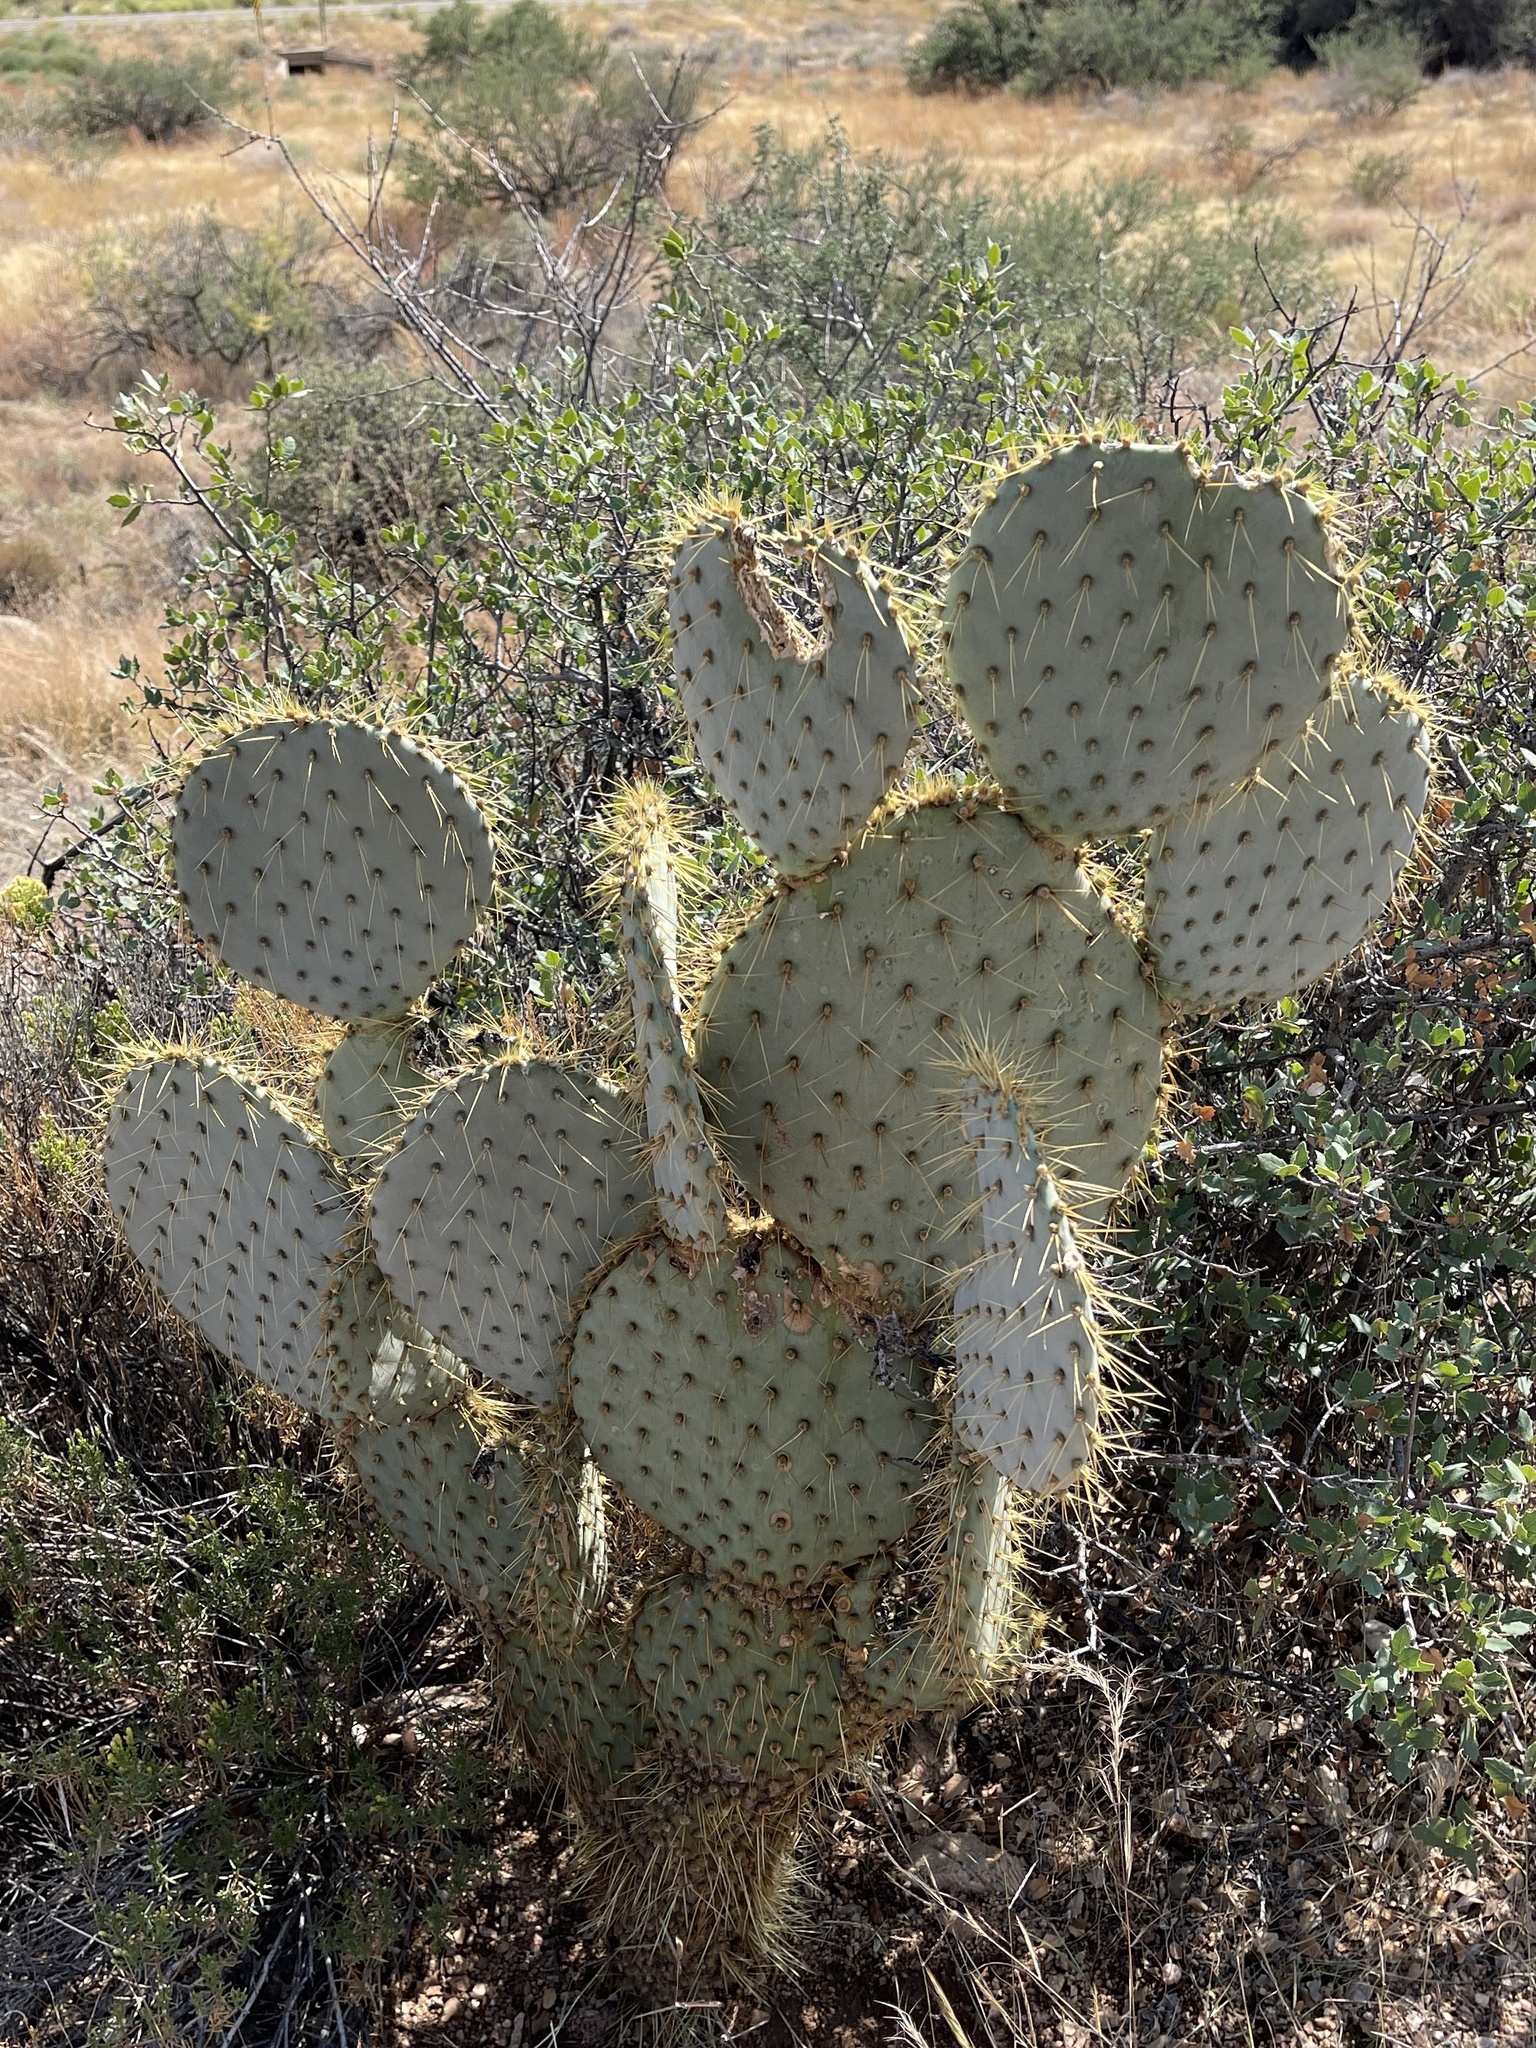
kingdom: Plantae
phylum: Tracheophyta
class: Magnoliopsida
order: Caryophyllales
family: Cactaceae
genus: Opuntia
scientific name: Opuntia chlorotica
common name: Dollar-joint prickly-pear
